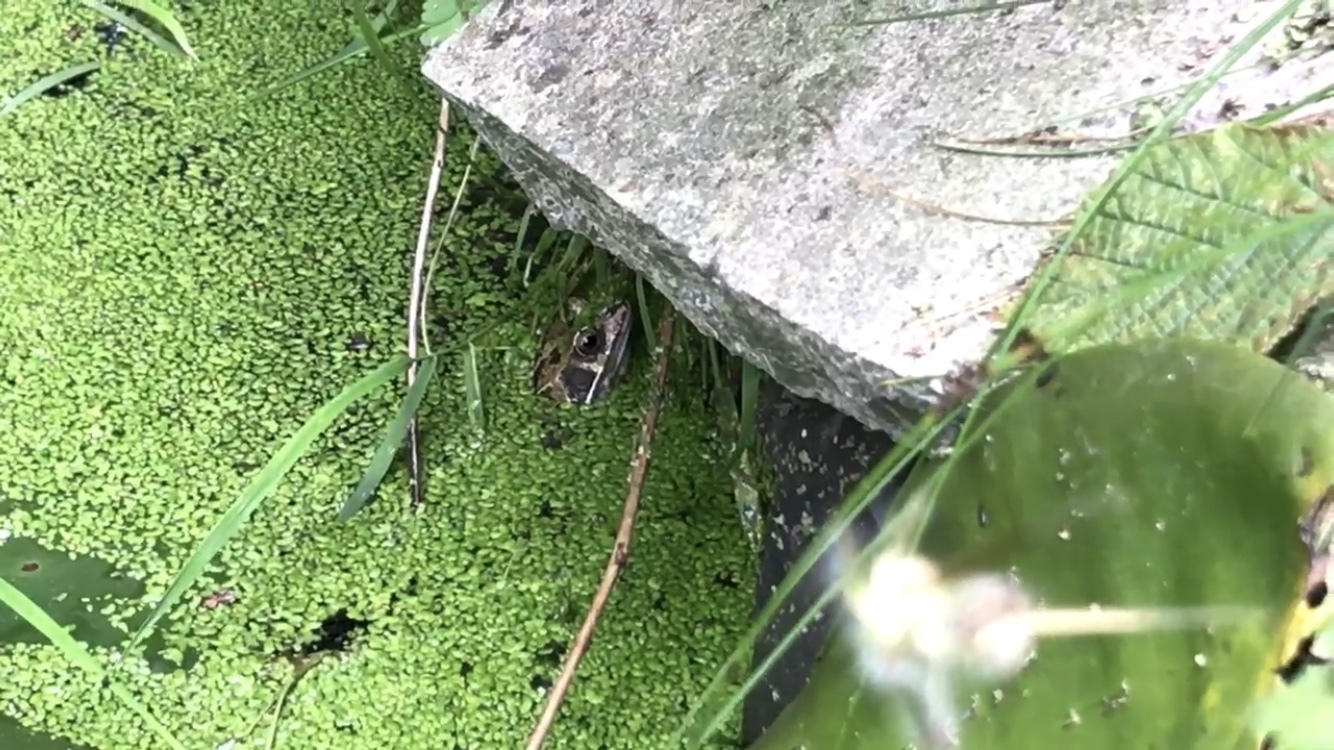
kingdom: Animalia
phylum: Chordata
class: Amphibia
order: Anura
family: Ranidae
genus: Rana
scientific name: Rana temporaria
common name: Common frog
